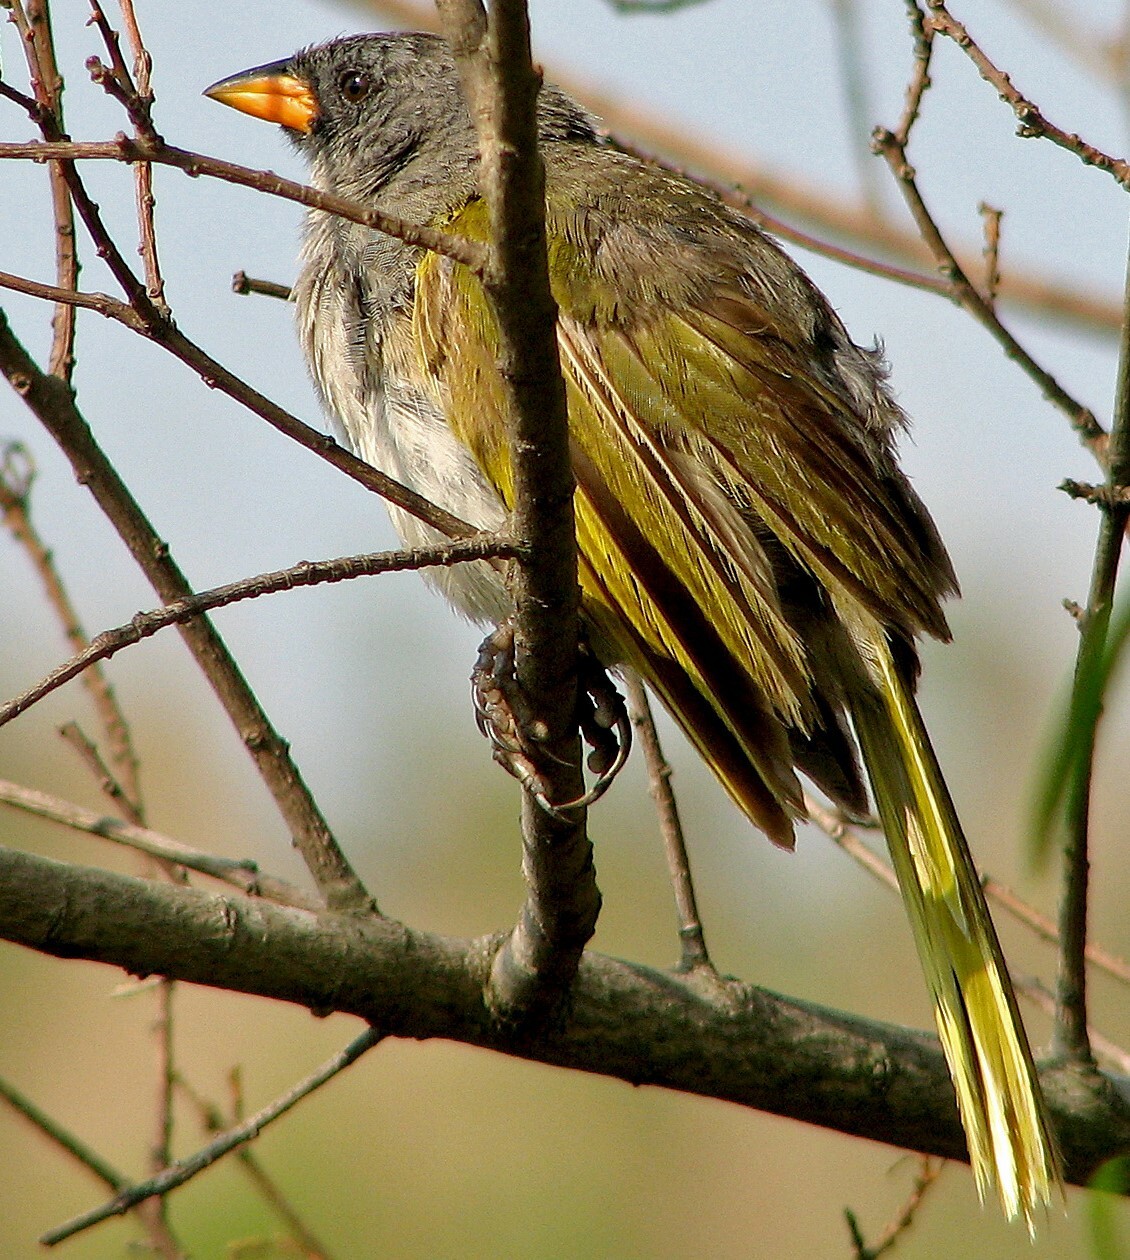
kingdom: Animalia
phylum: Chordata
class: Aves
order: Passeriformes
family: Thraupidae
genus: Embernagra
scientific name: Embernagra platensis
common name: Pampa finch
